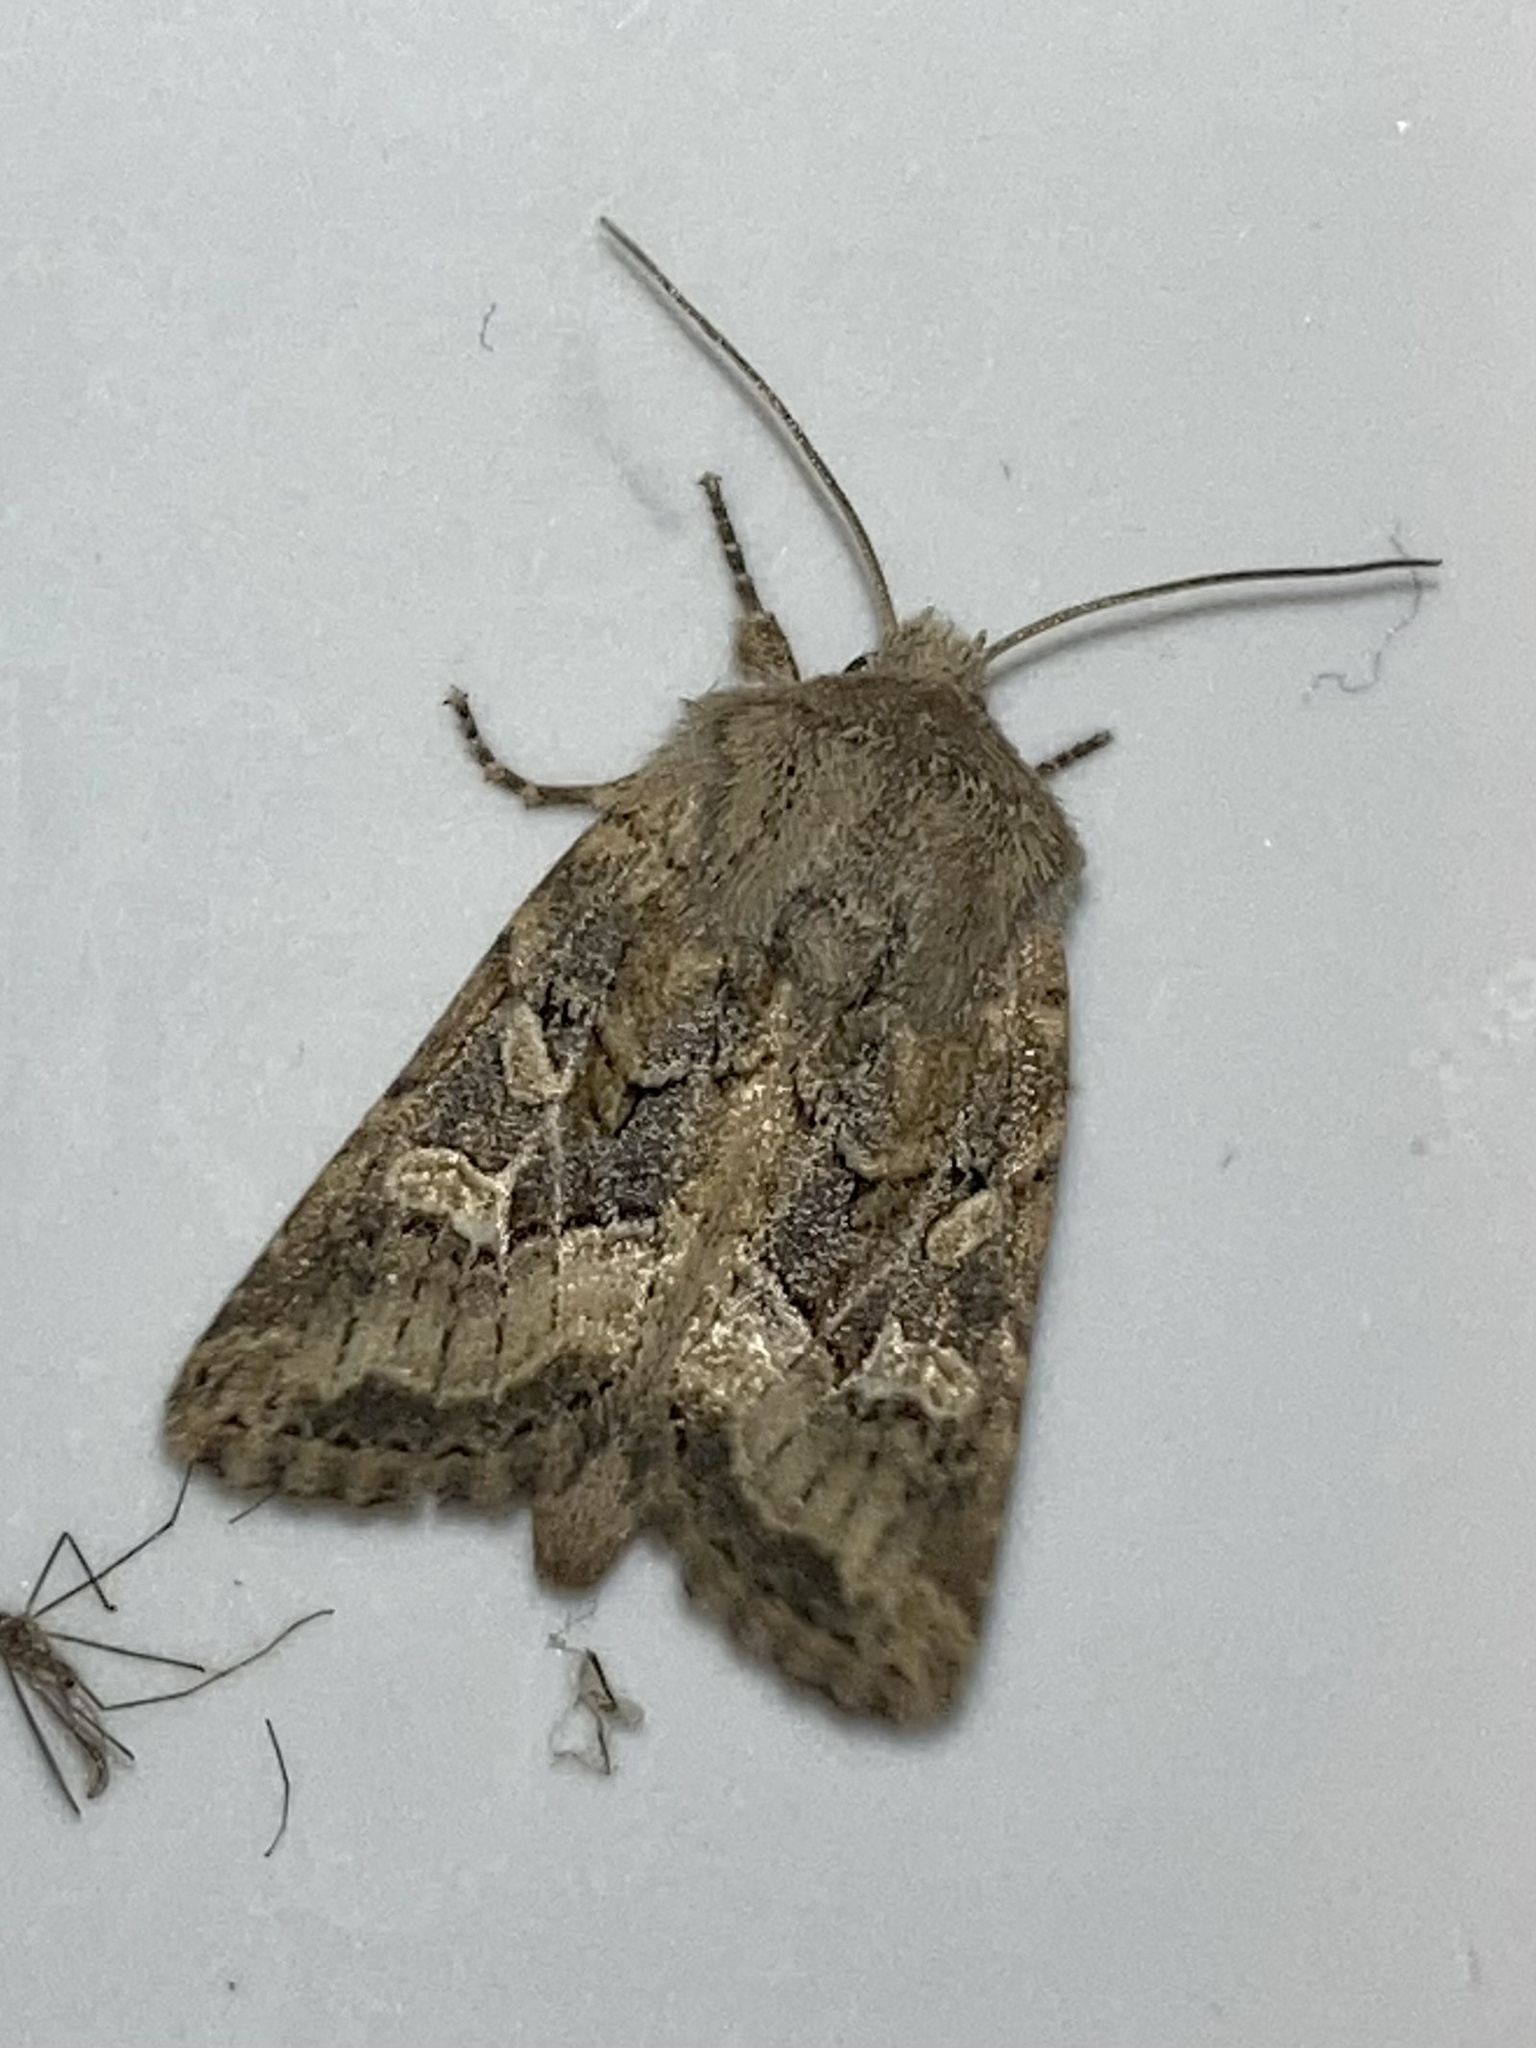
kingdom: Animalia
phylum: Arthropoda
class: Insecta
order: Lepidoptera
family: Noctuidae
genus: Luperina
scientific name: Luperina dumerilii
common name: Dumeril's rustic
